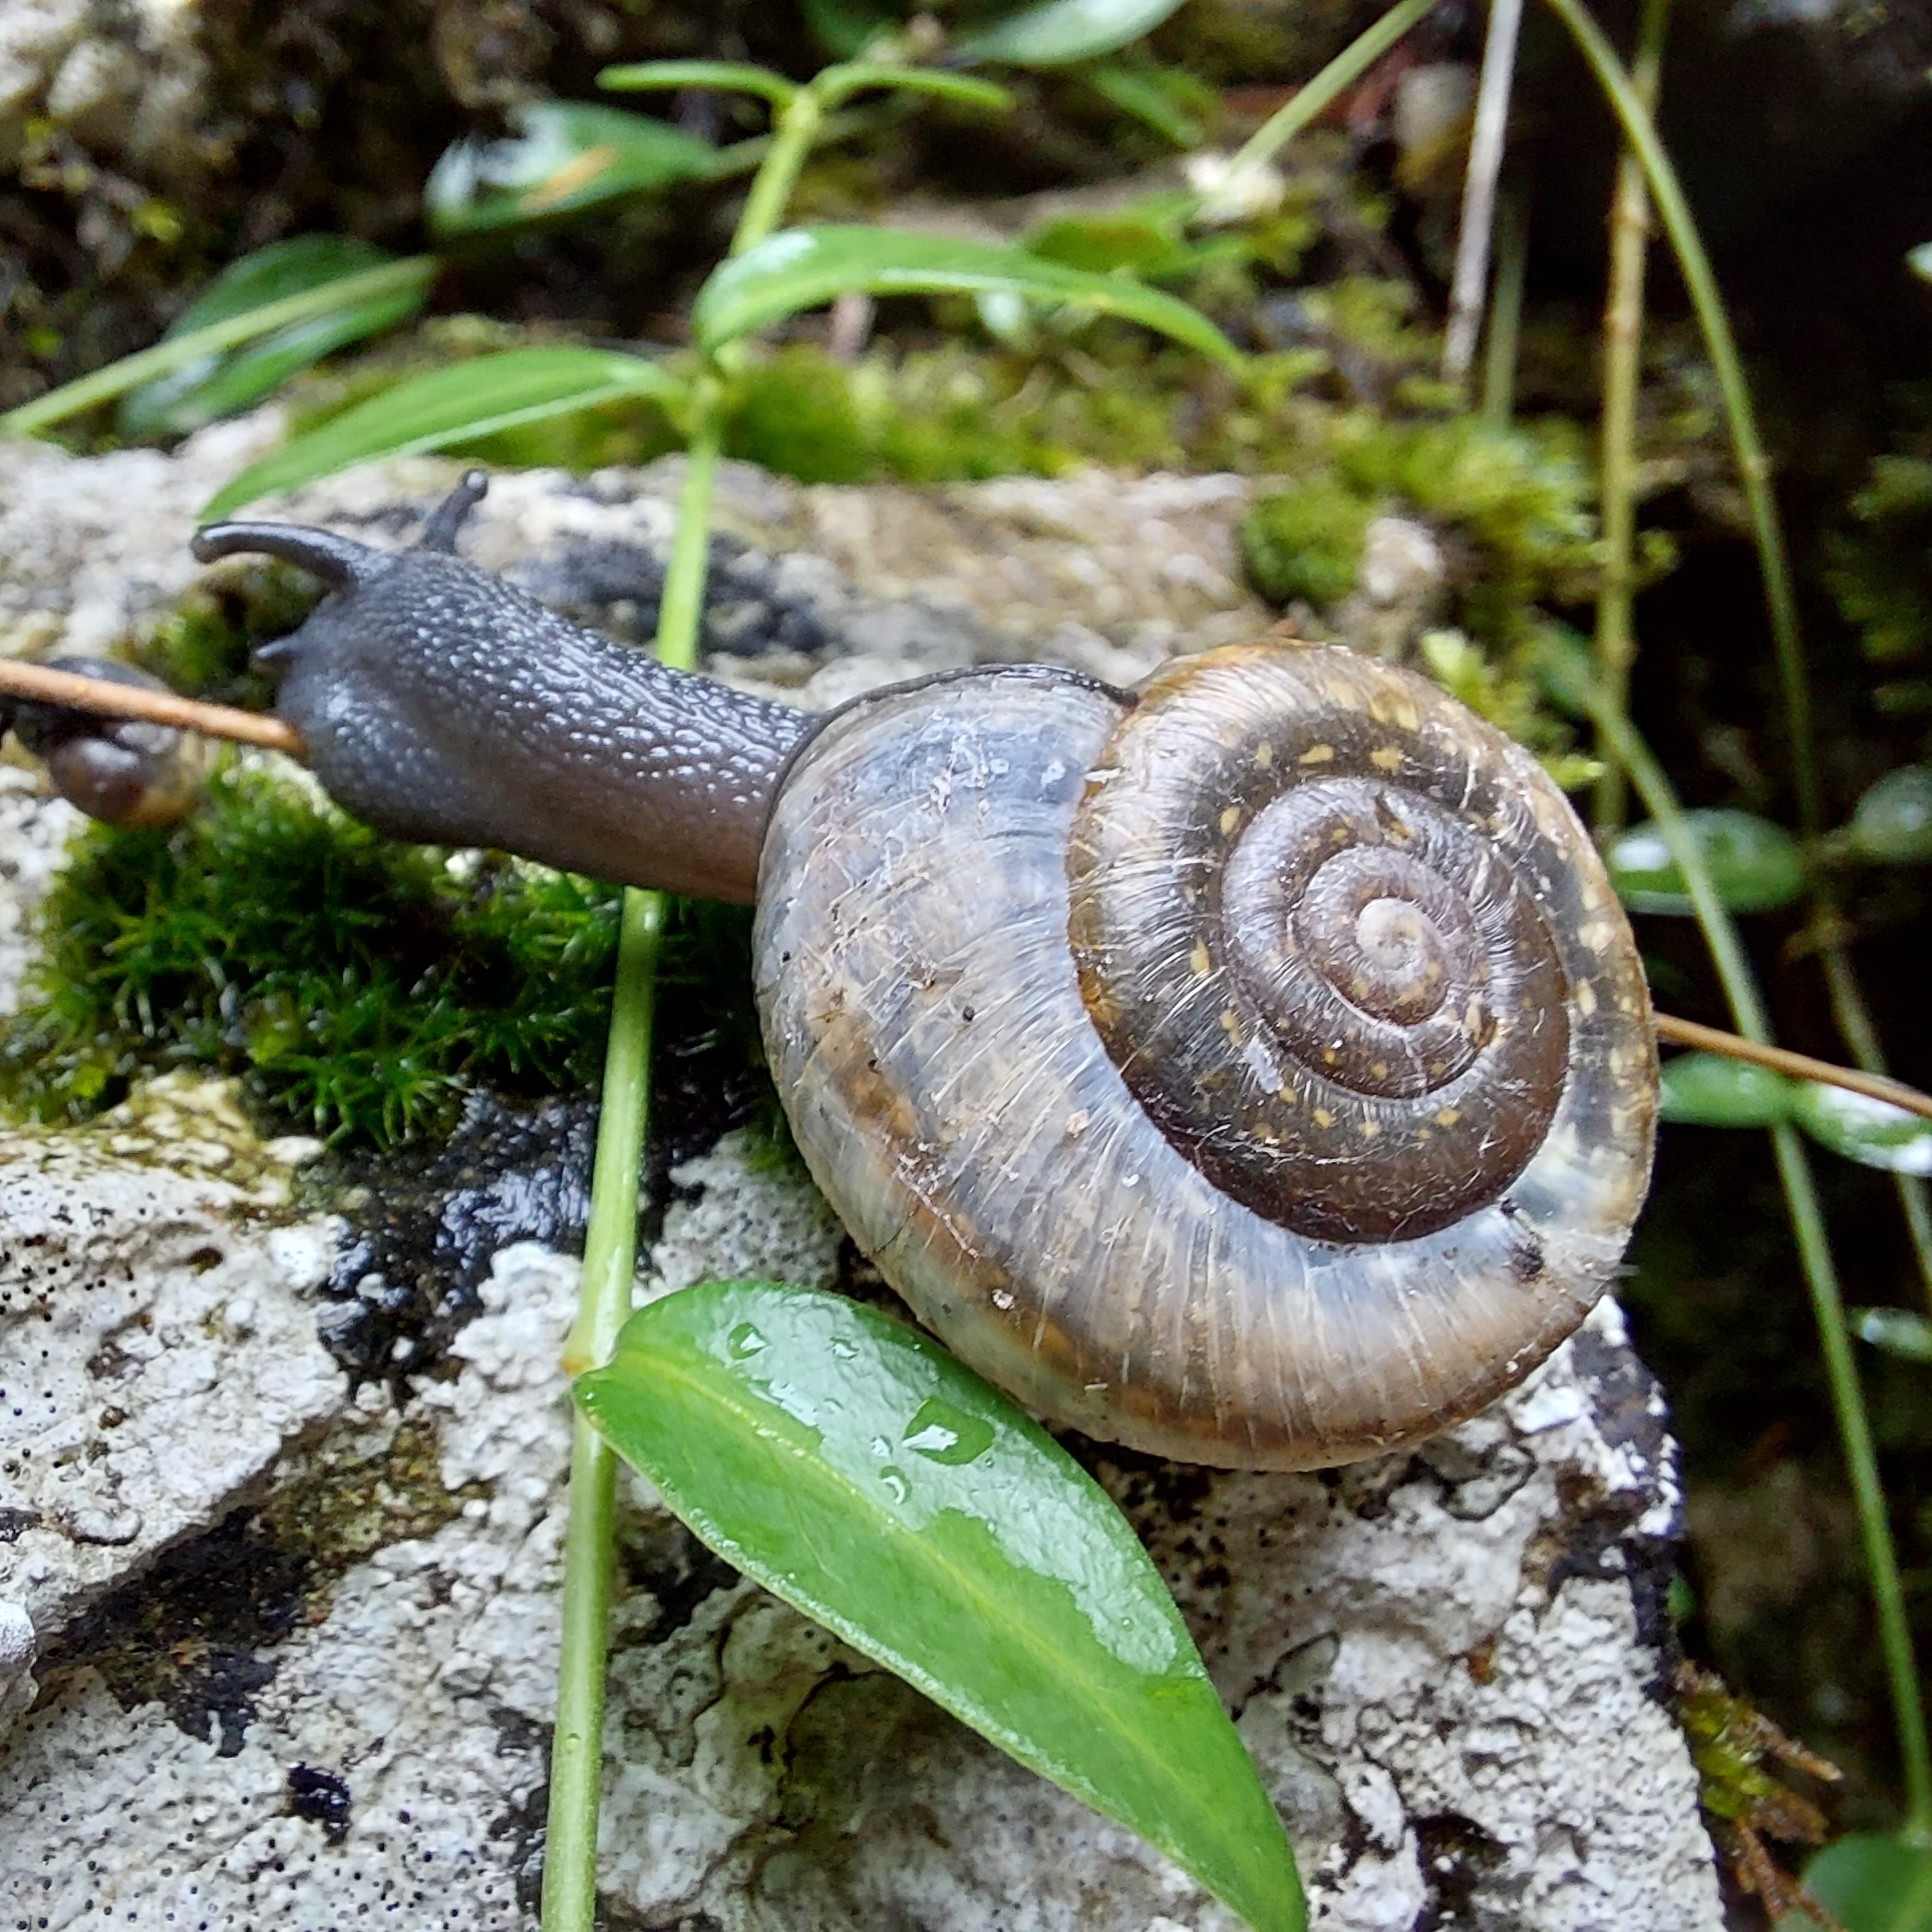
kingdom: Animalia
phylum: Mollusca
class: Gastropoda
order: Stylommatophora
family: Helicidae
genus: Campylaea
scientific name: Campylaea illyrica
